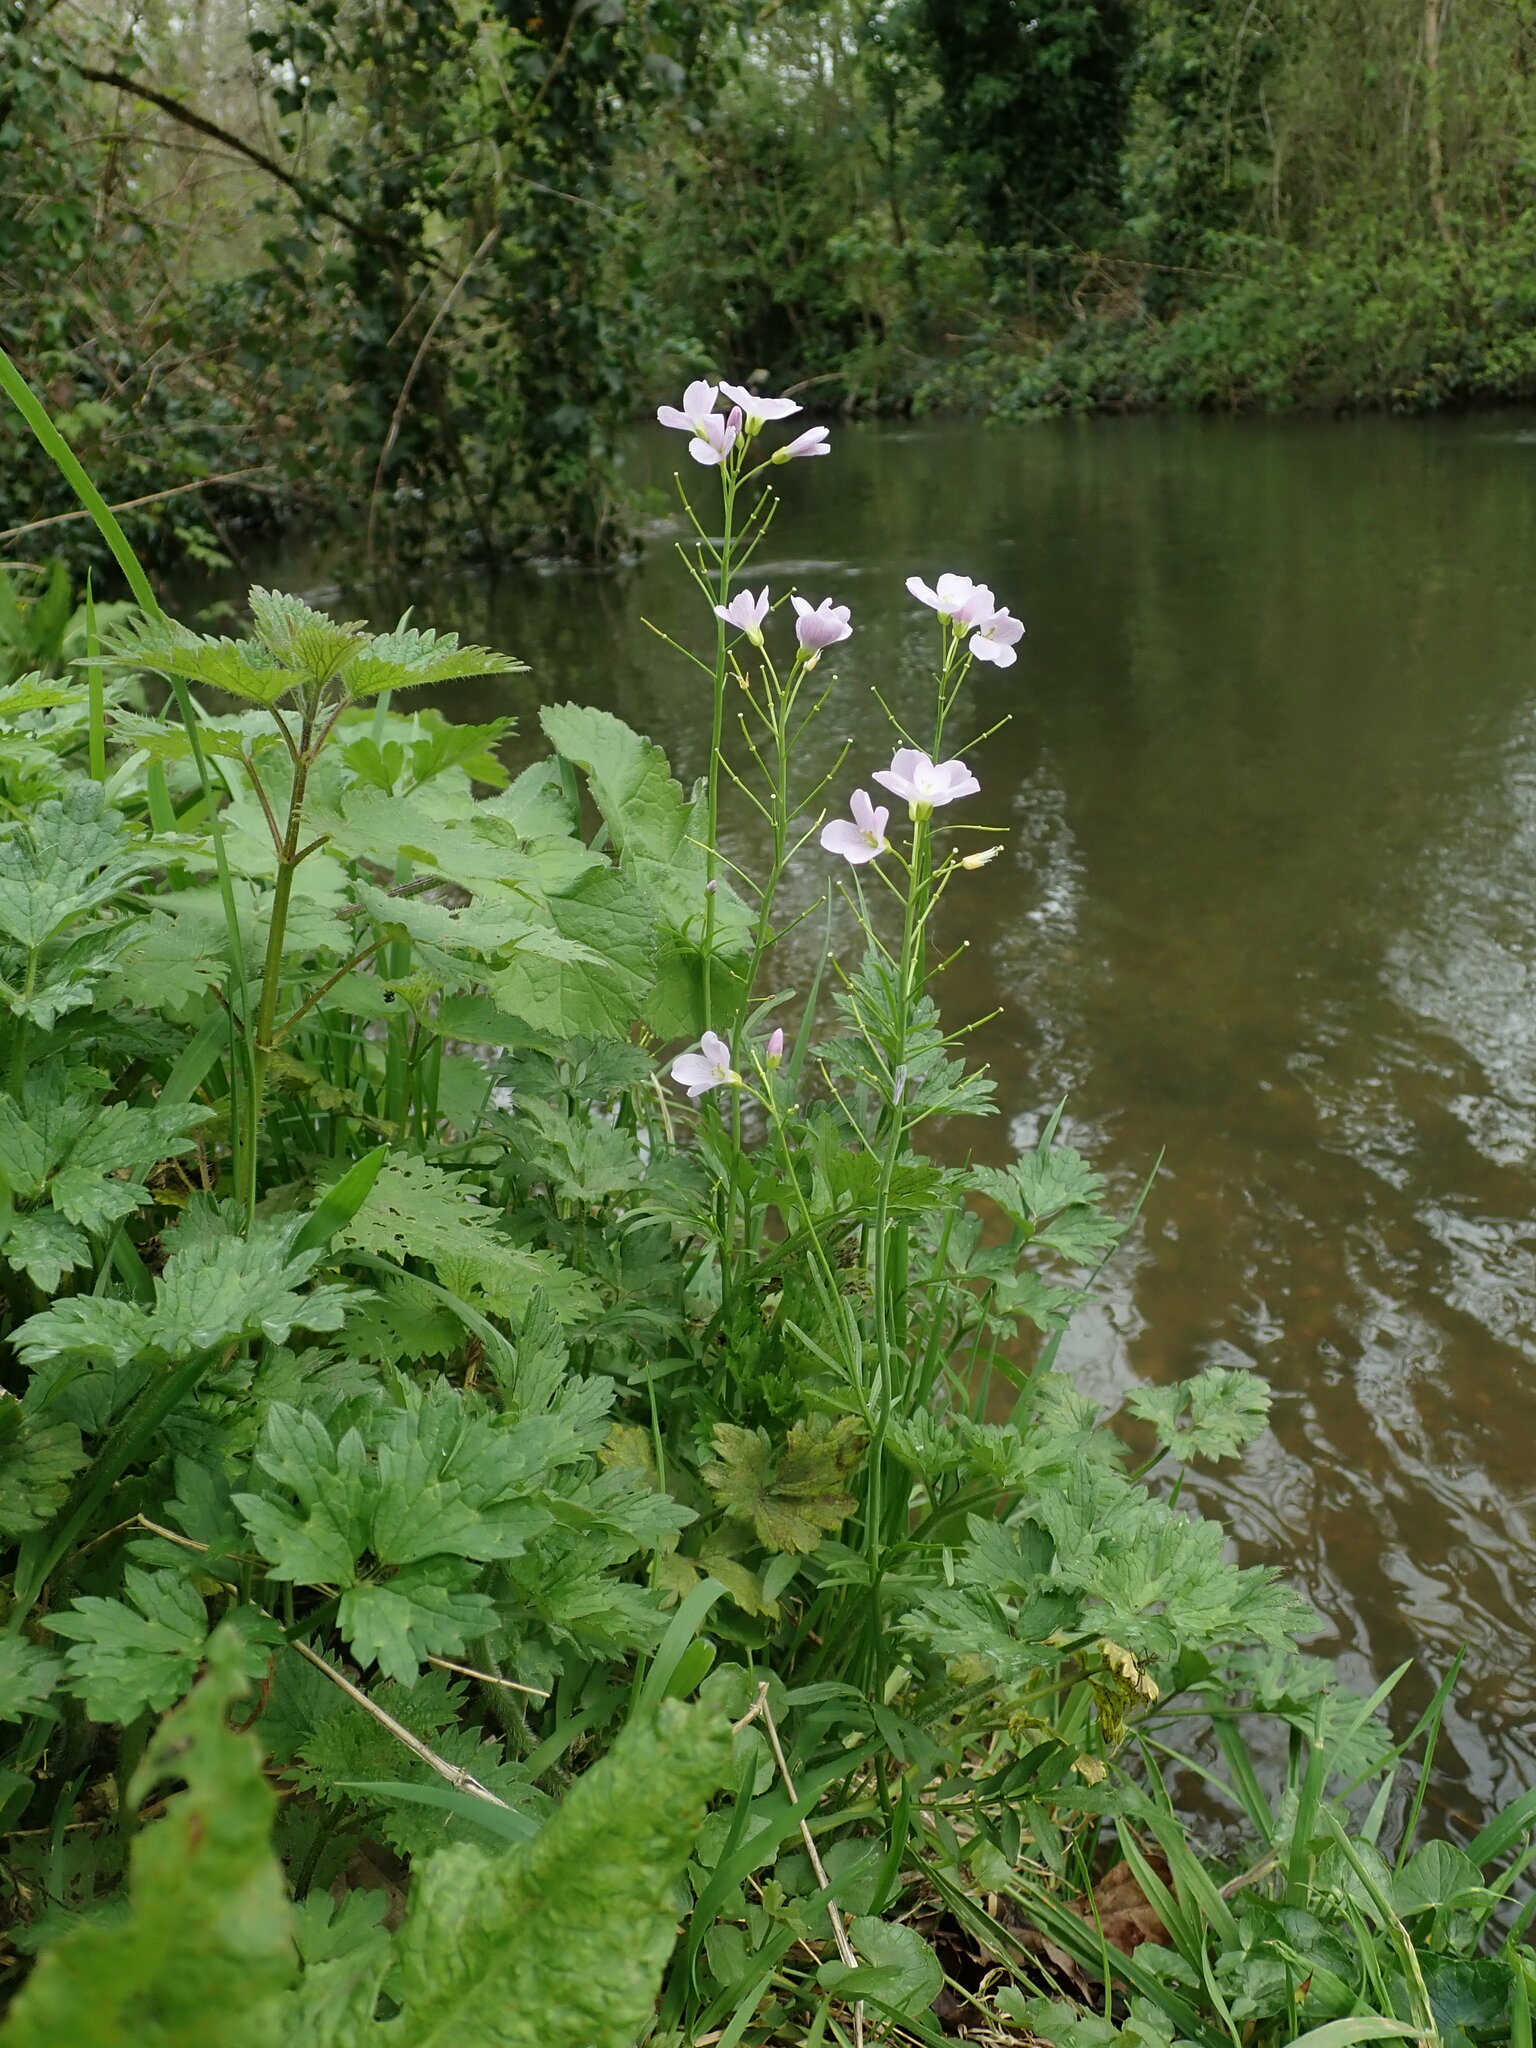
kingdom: Plantae
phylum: Tracheophyta
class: Magnoliopsida
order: Brassicales
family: Brassicaceae
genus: Cardamine
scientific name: Cardamine pratensis
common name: Cuckoo flower
